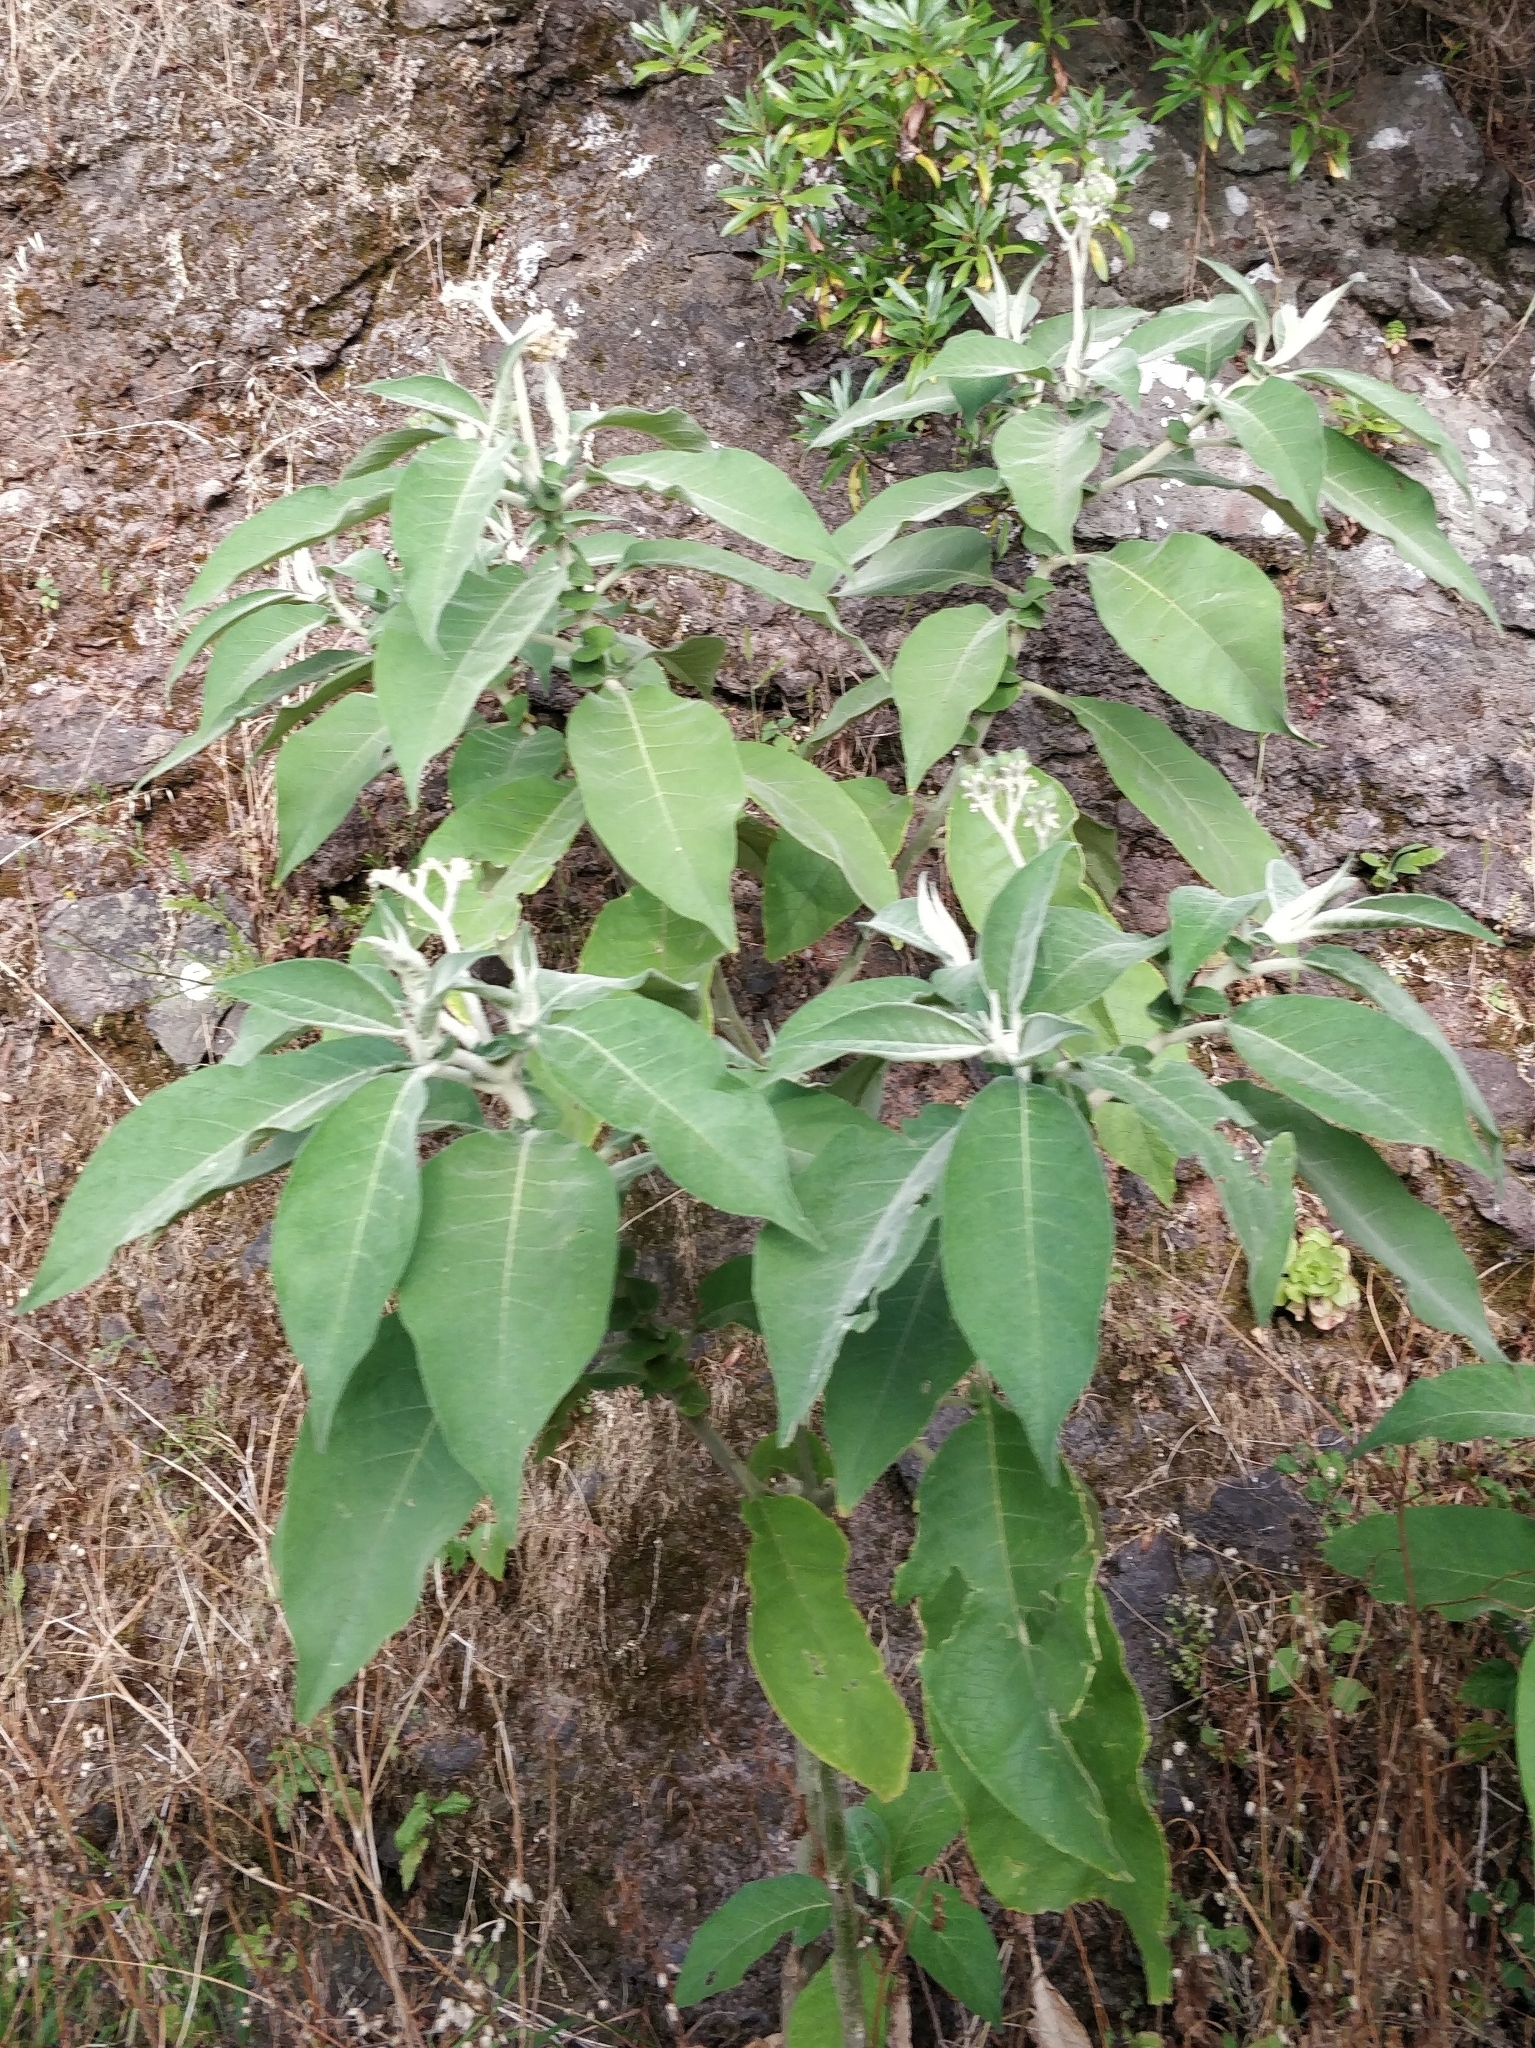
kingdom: Plantae
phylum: Tracheophyta
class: Magnoliopsida
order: Solanales
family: Solanaceae
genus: Solanum
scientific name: Solanum mauritianum
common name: Earleaf nightshade
